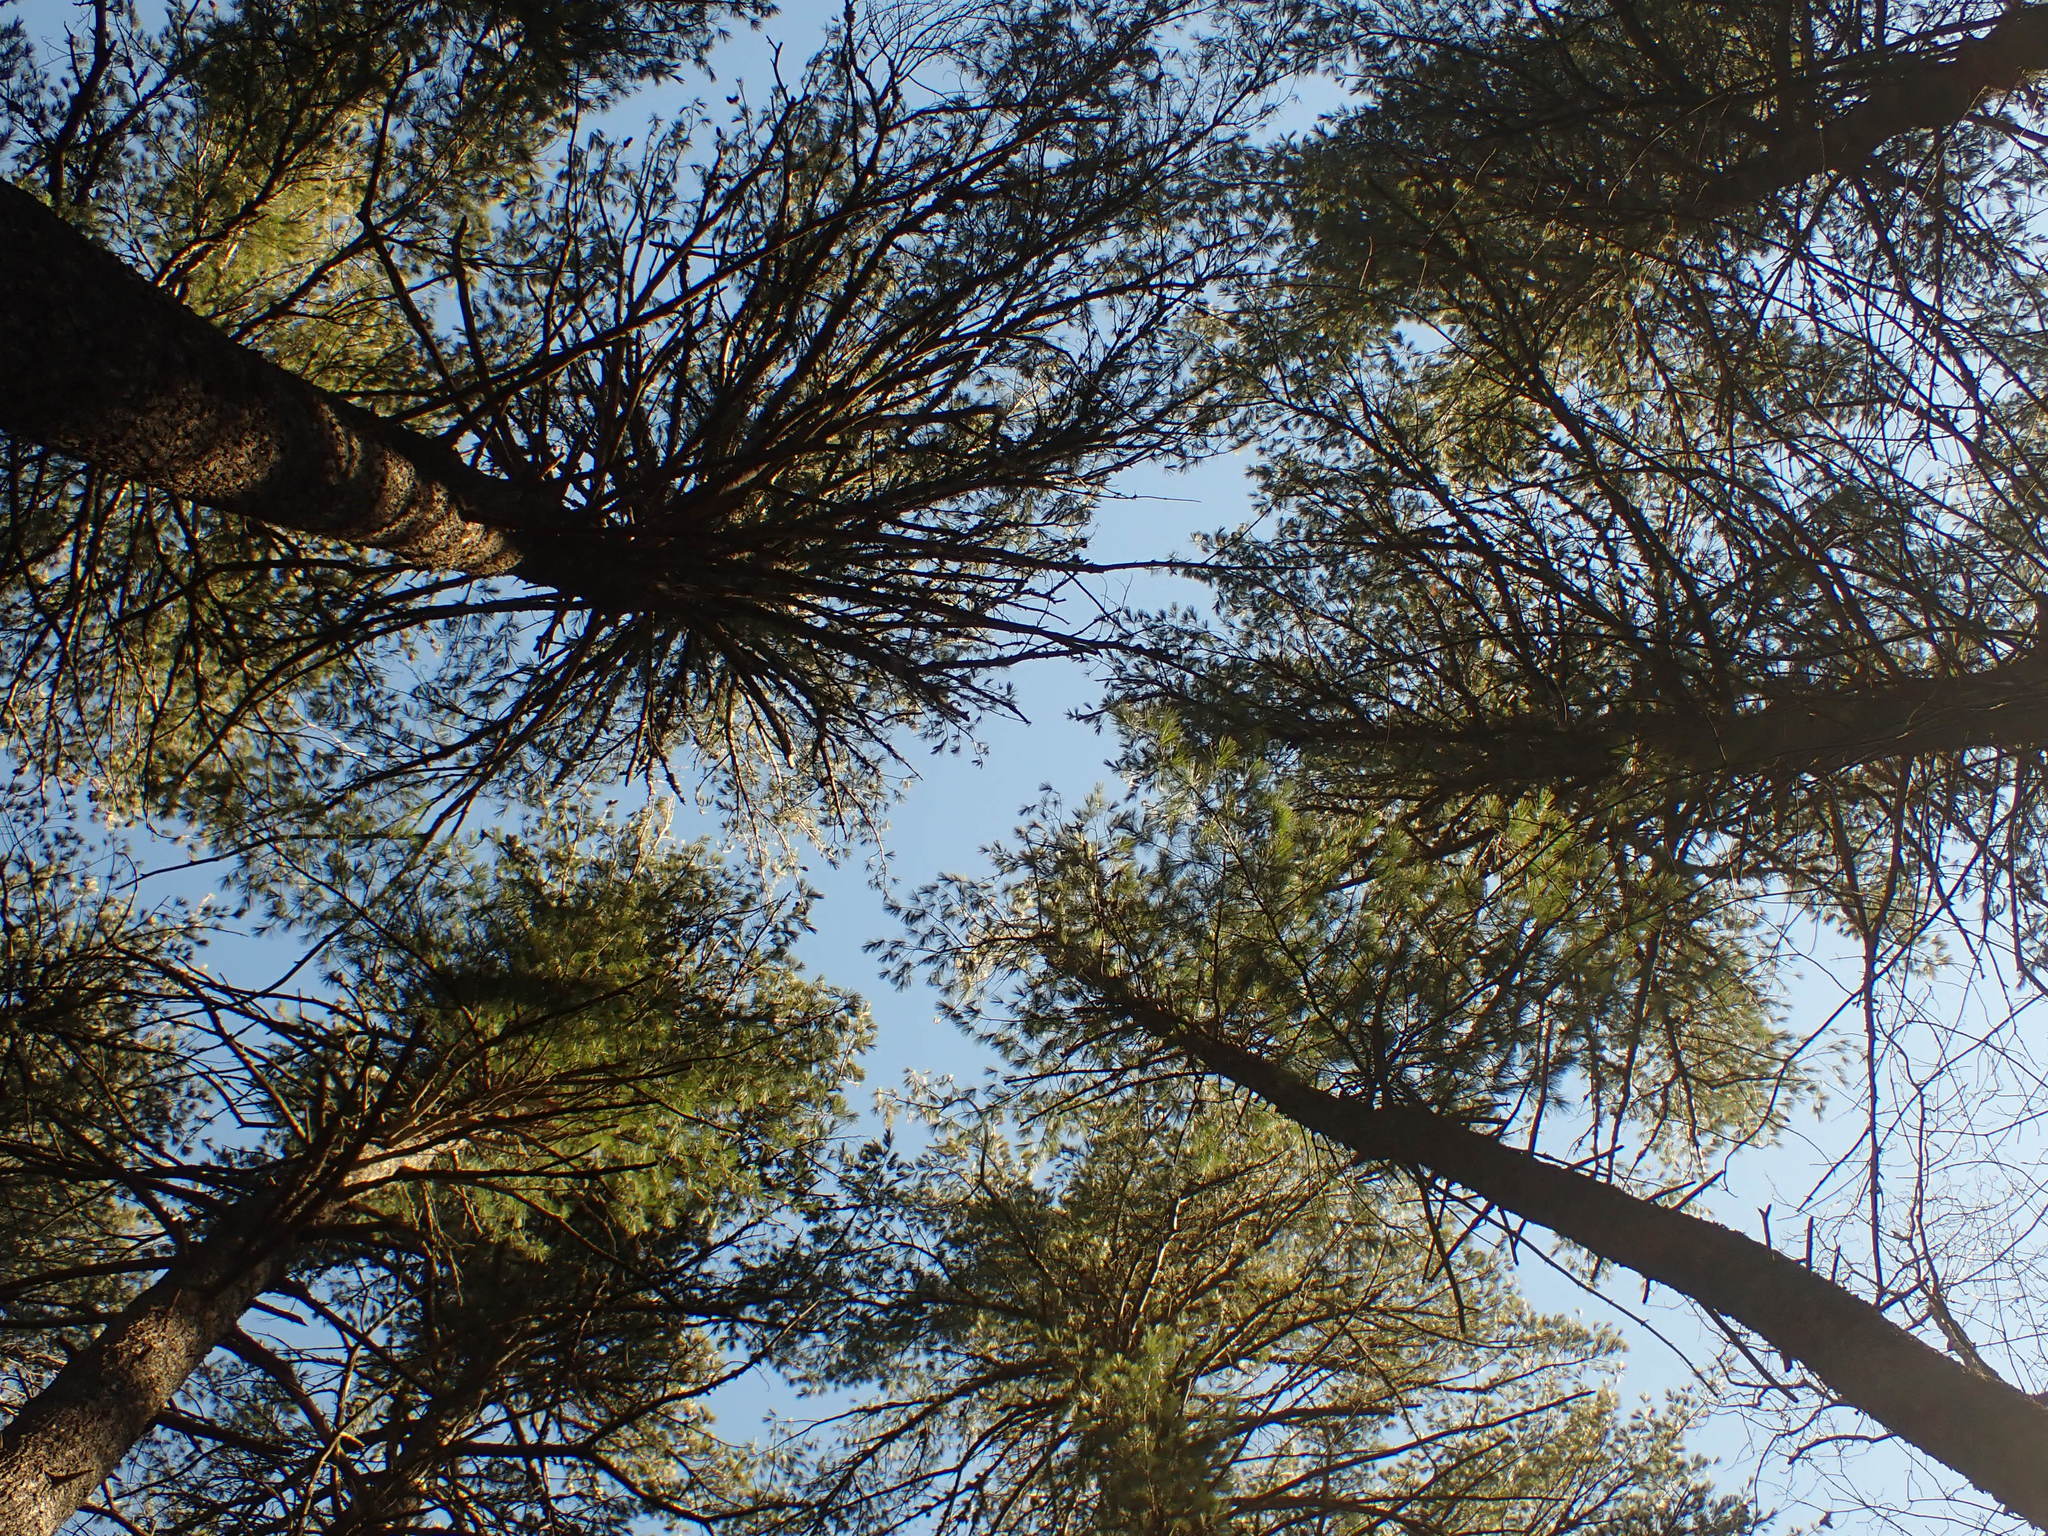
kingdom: Plantae
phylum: Tracheophyta
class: Pinopsida
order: Pinales
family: Pinaceae
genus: Pinus
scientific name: Pinus strobus
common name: Weymouth pine
